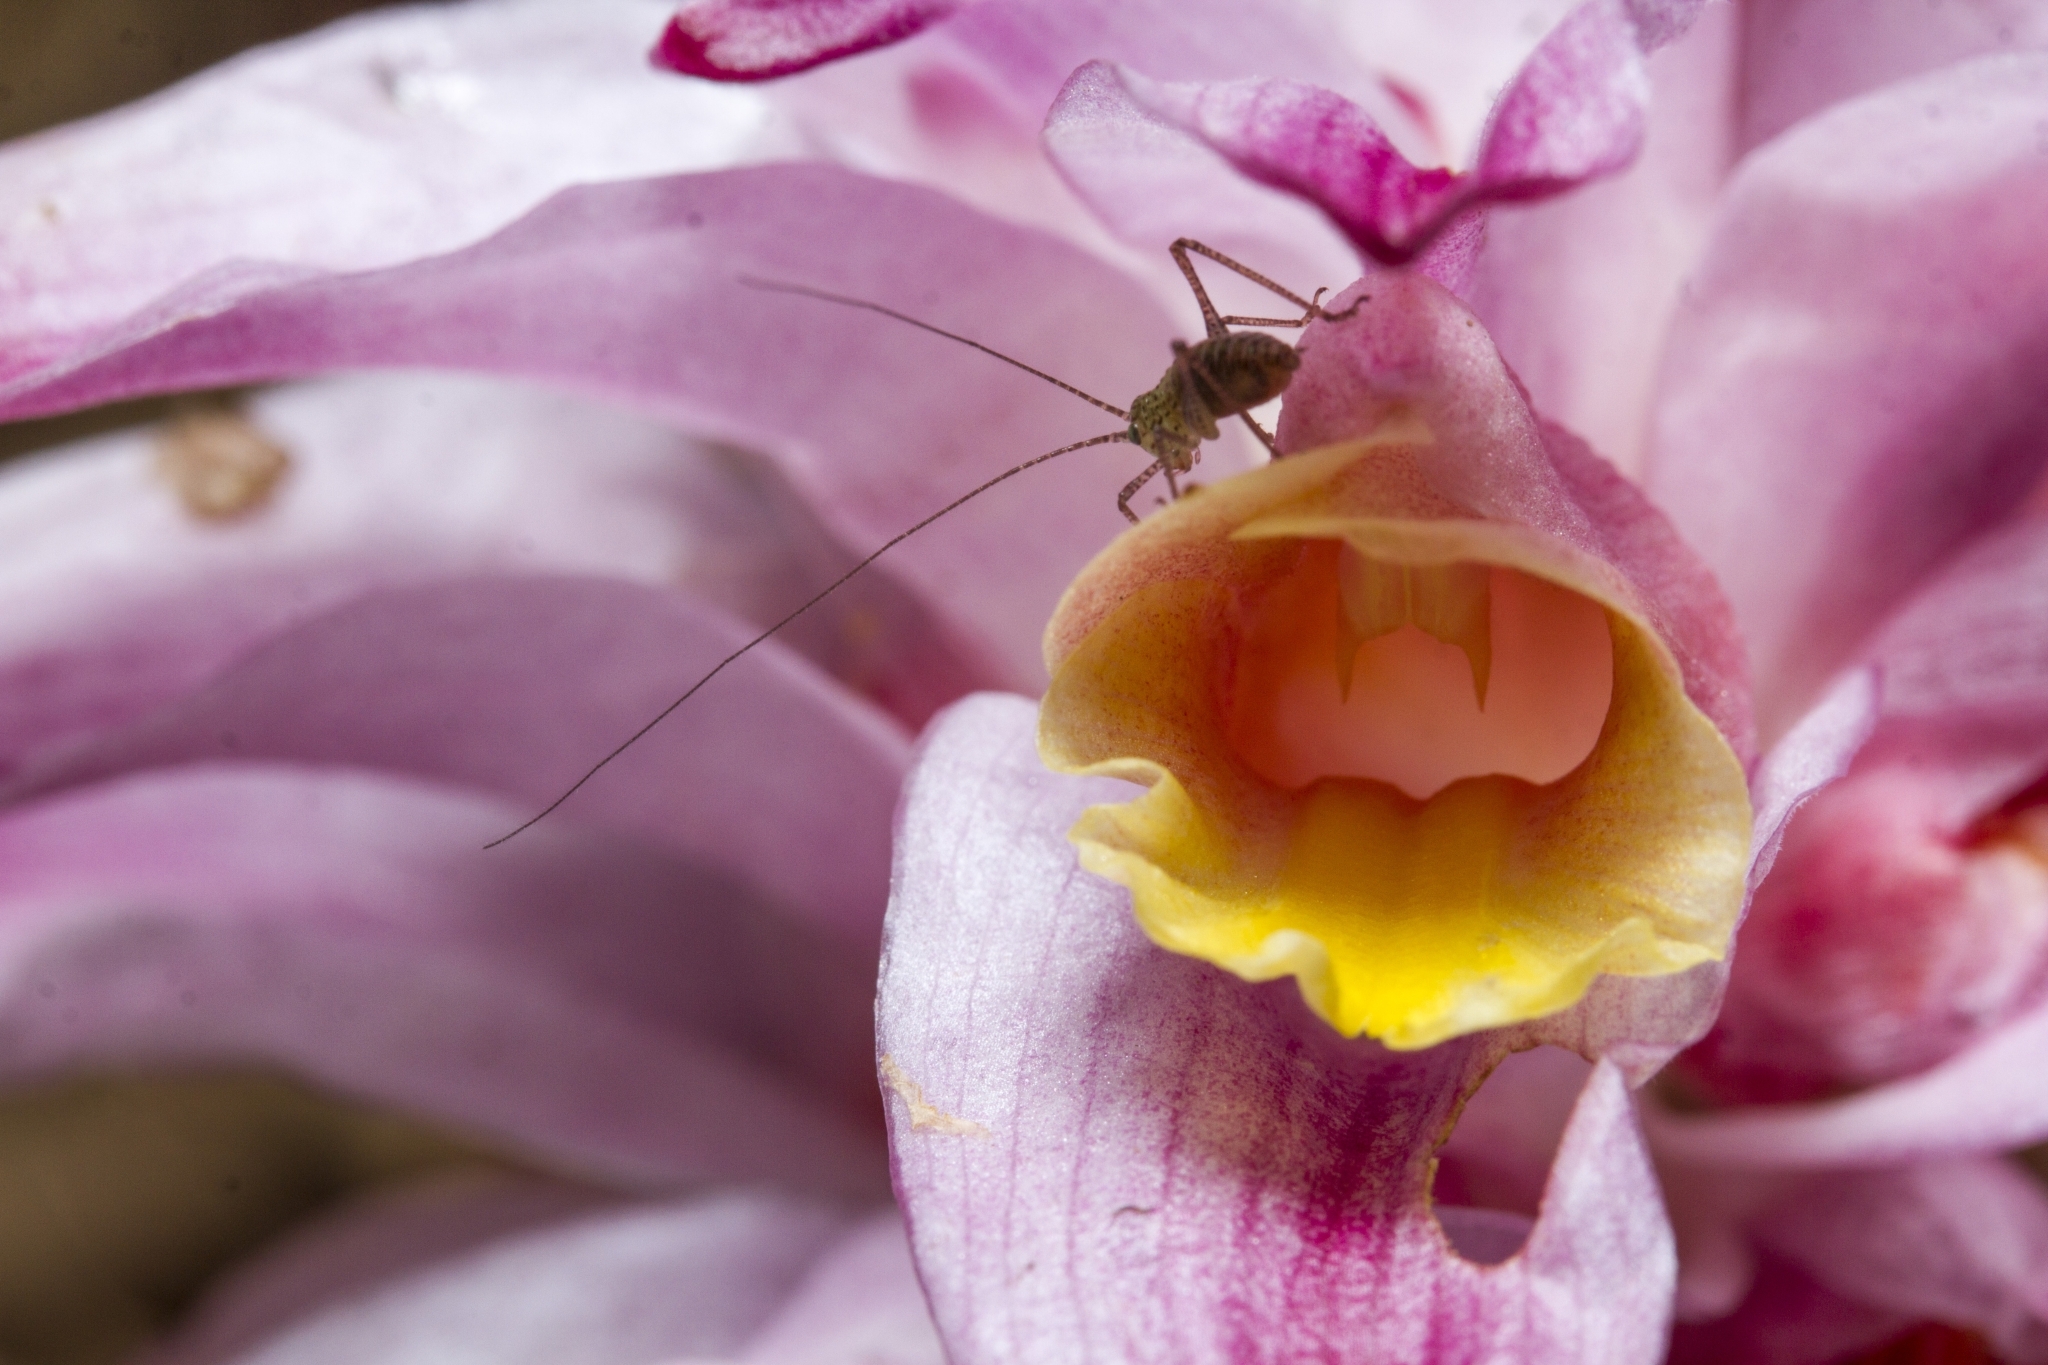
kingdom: Plantae
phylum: Tracheophyta
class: Liliopsida
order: Zingiberales
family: Zingiberaceae
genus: Curcuma
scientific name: Curcuma pseudomontana
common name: Hill turmeric
